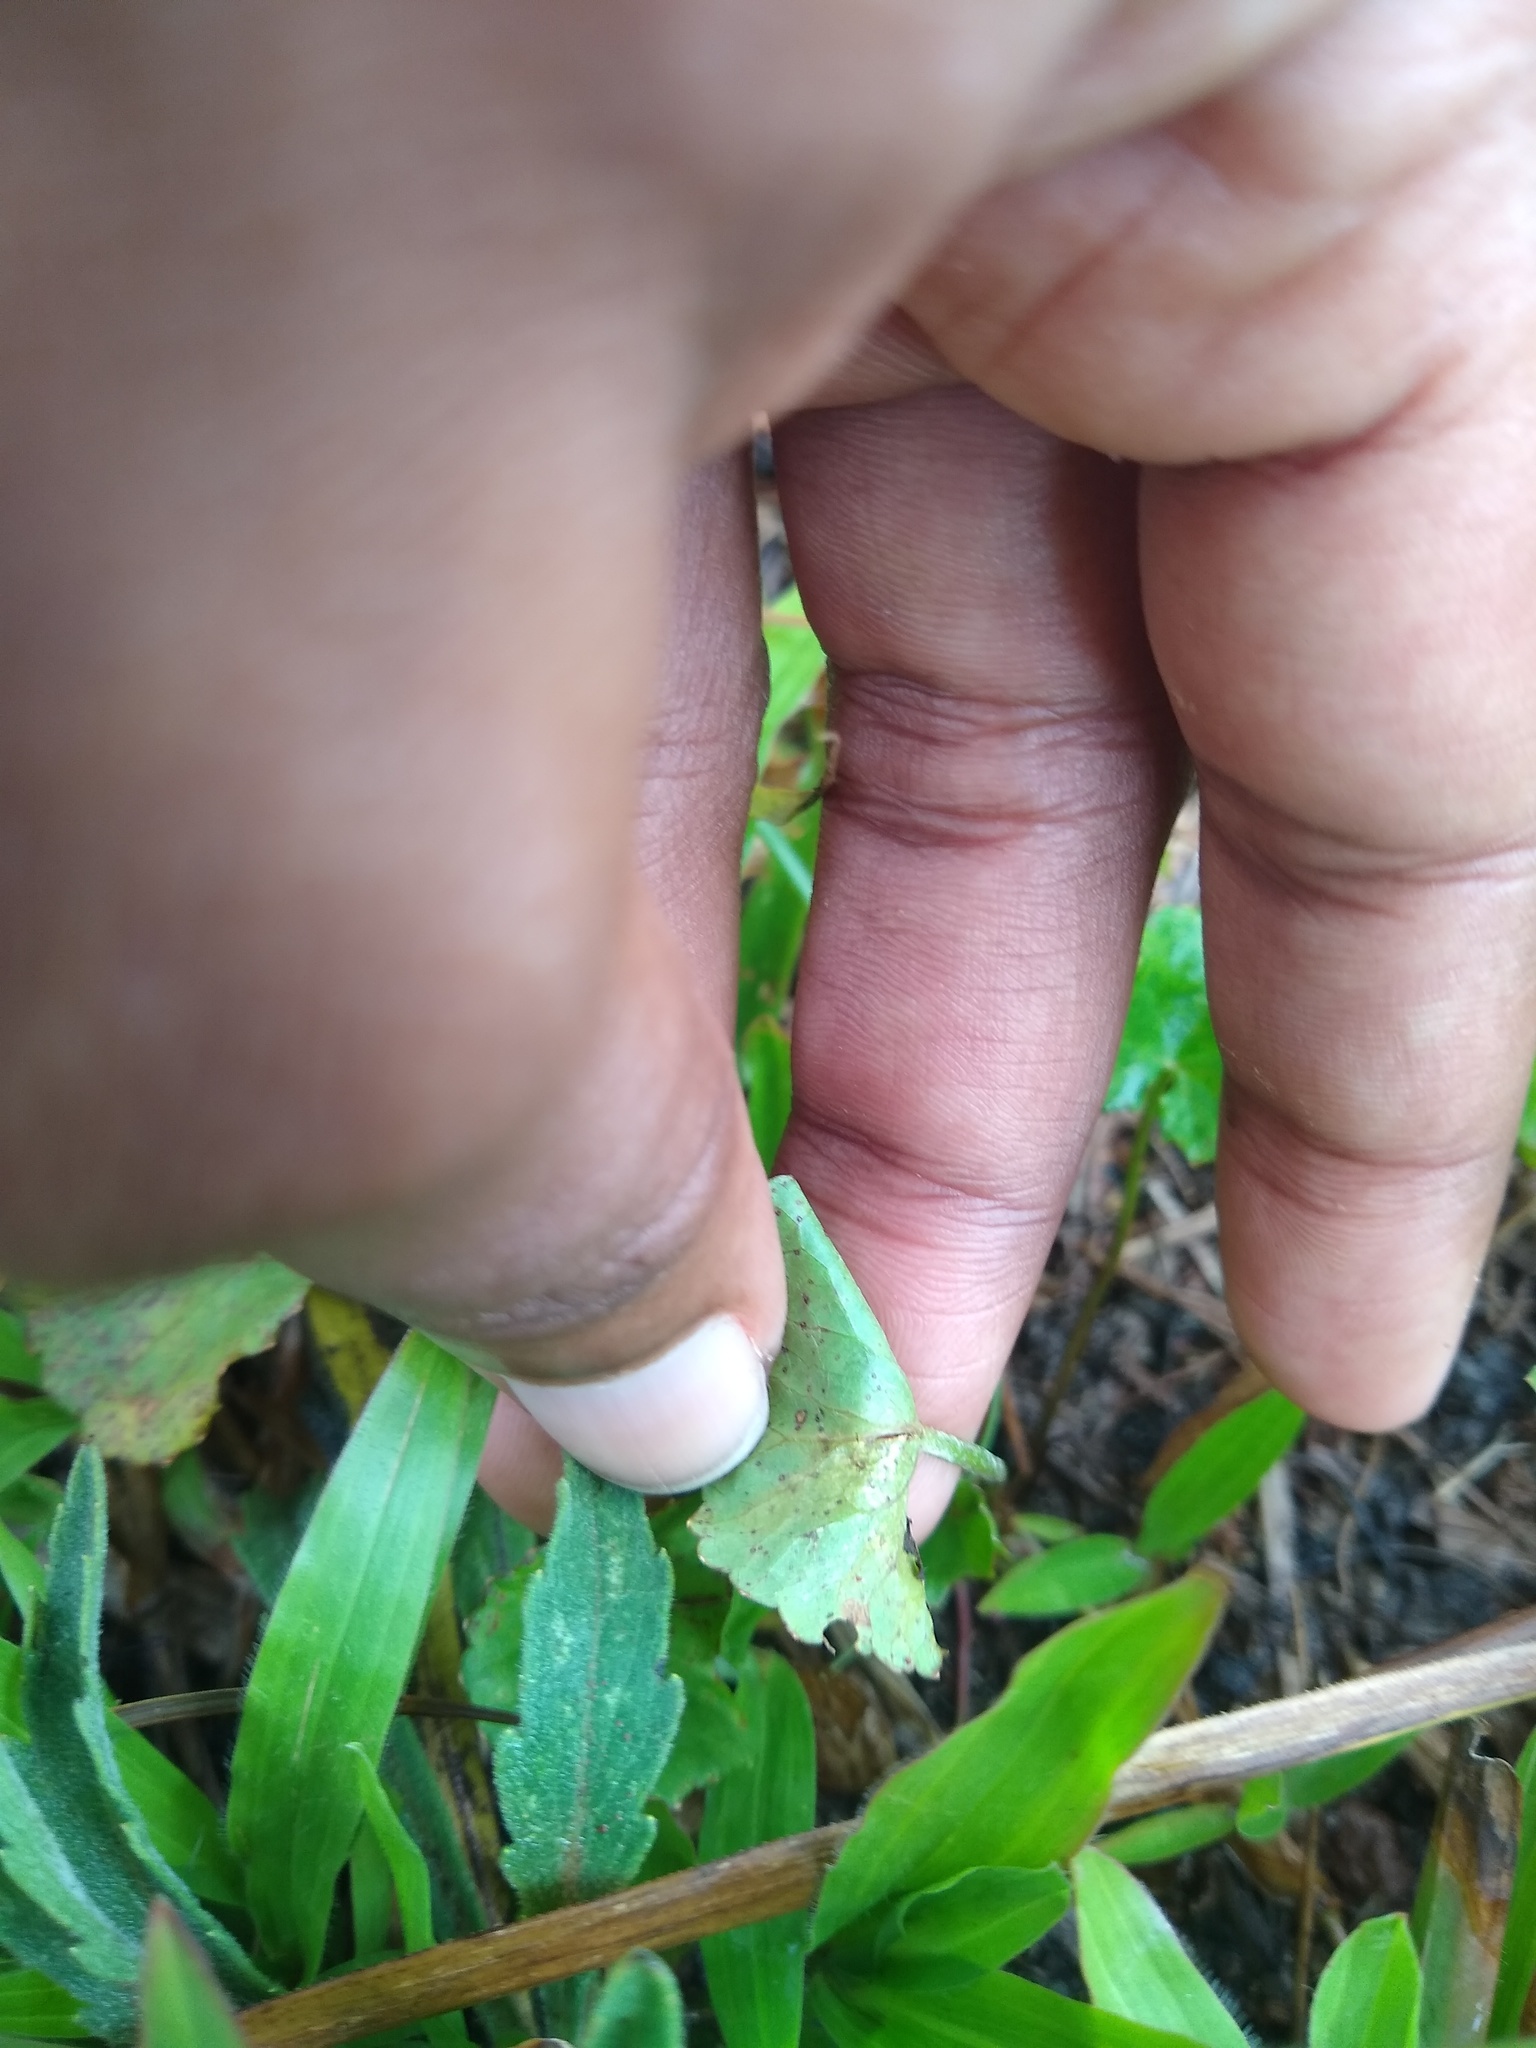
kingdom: Plantae
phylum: Tracheophyta
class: Magnoliopsida
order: Apiales
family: Apiaceae
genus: Centella
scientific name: Centella asiatica
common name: Spadeleaf
